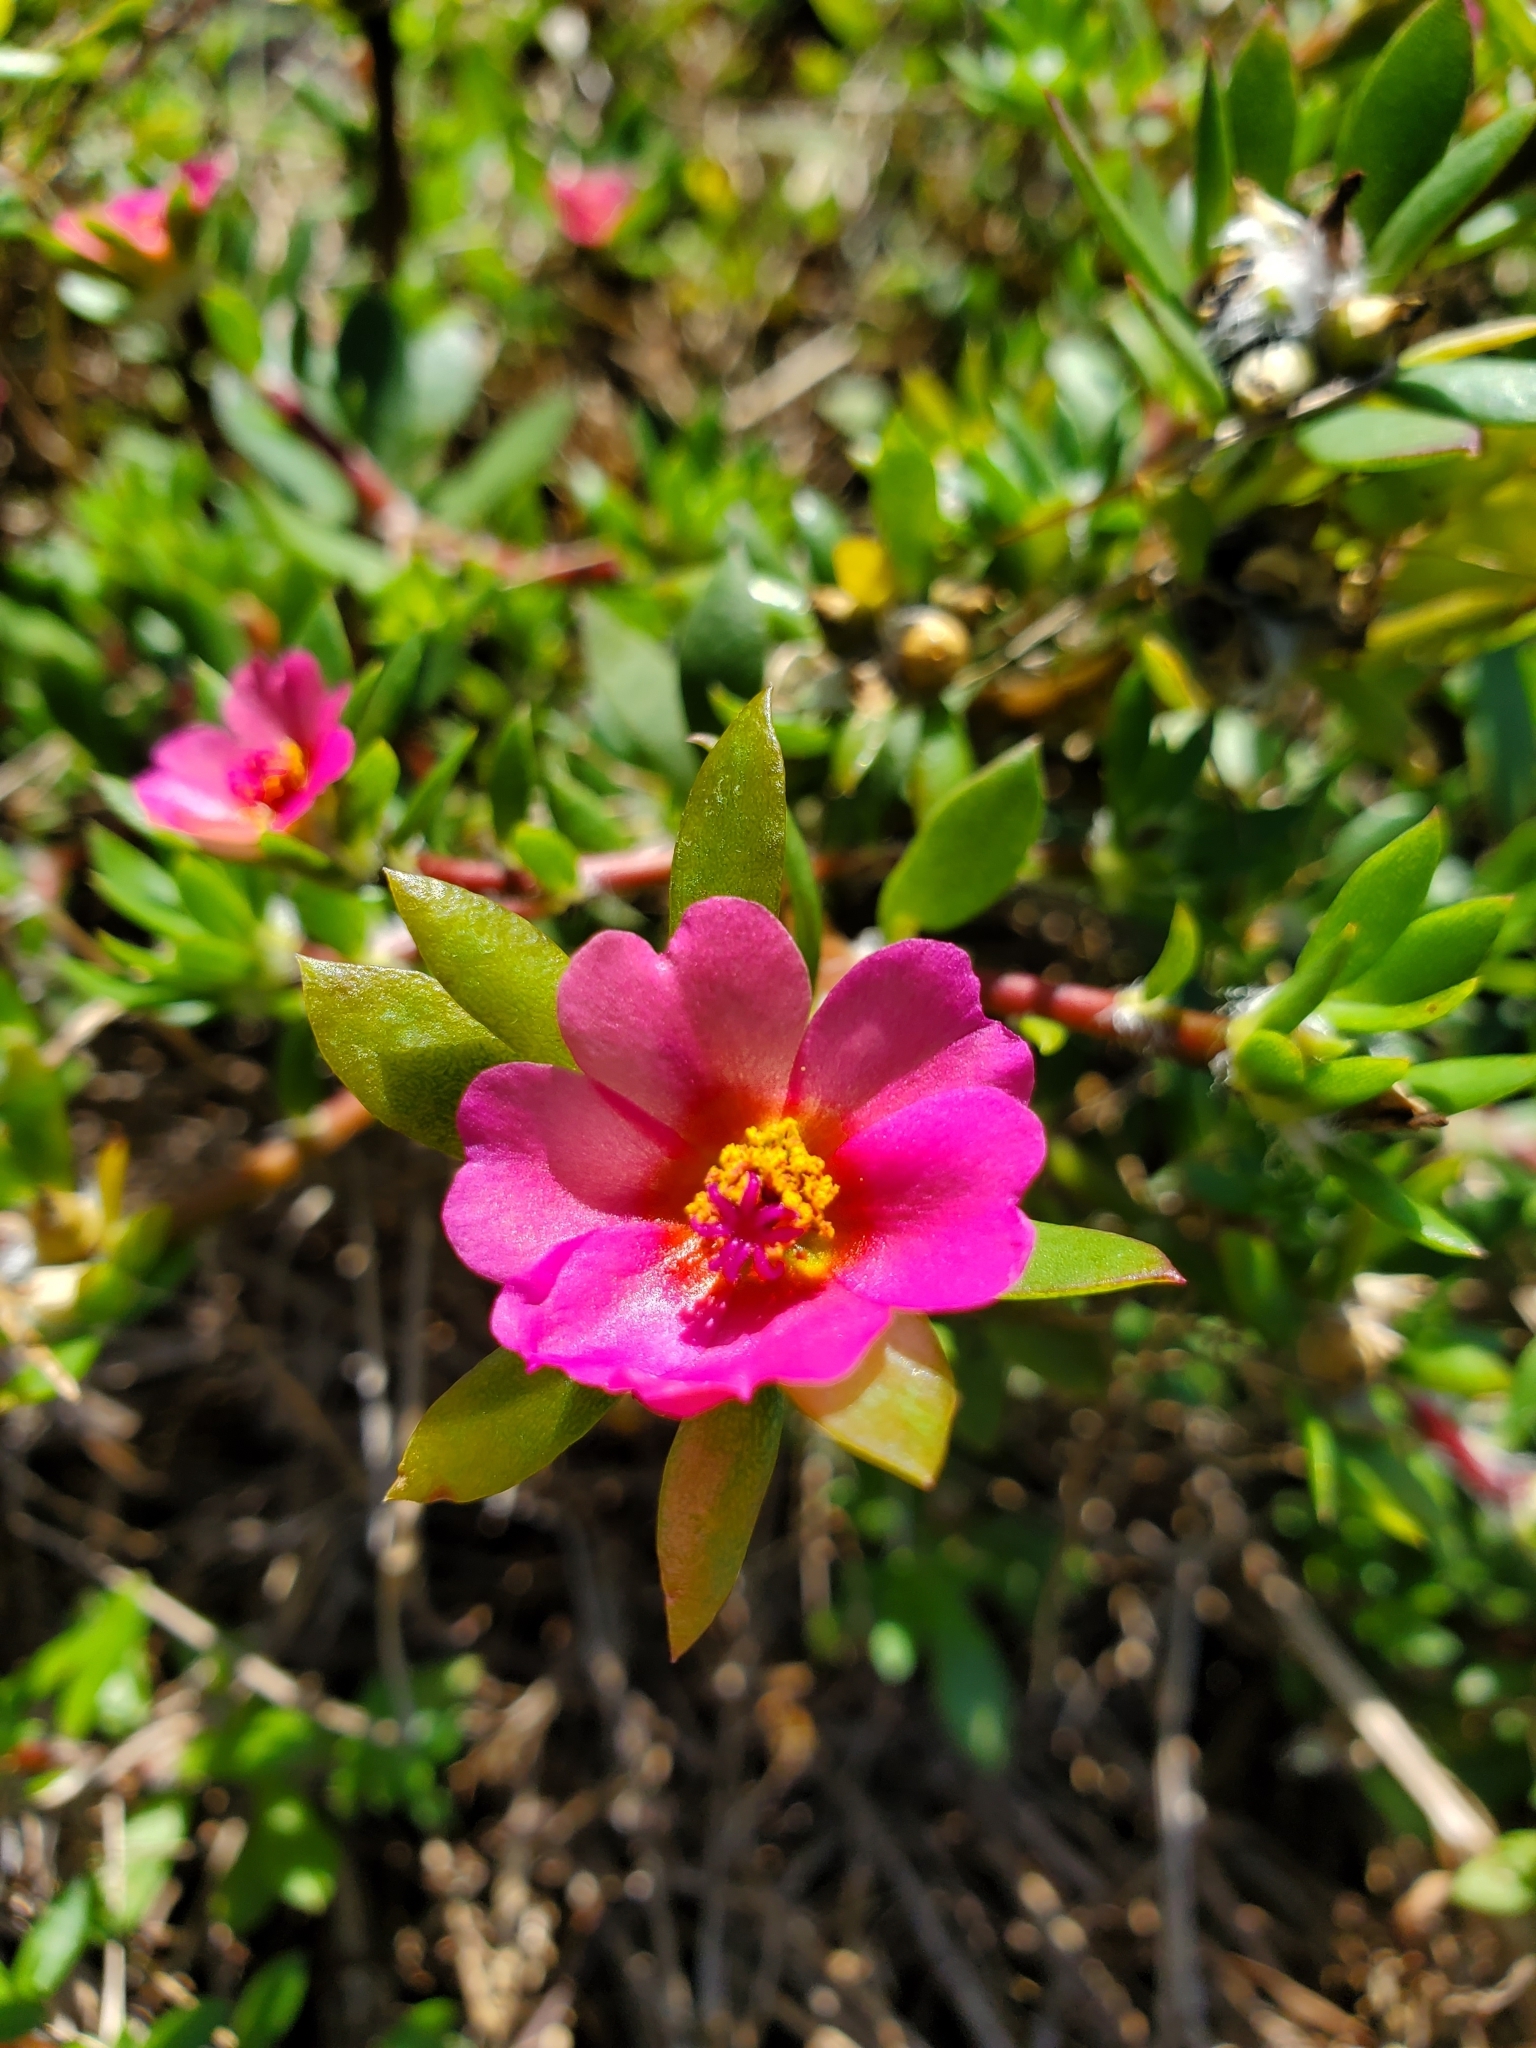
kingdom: Plantae
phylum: Tracheophyta
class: Magnoliopsida
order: Caryophyllales
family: Portulacaceae
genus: Portulaca
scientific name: Portulaca amilis
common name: Paraguayan purslane
